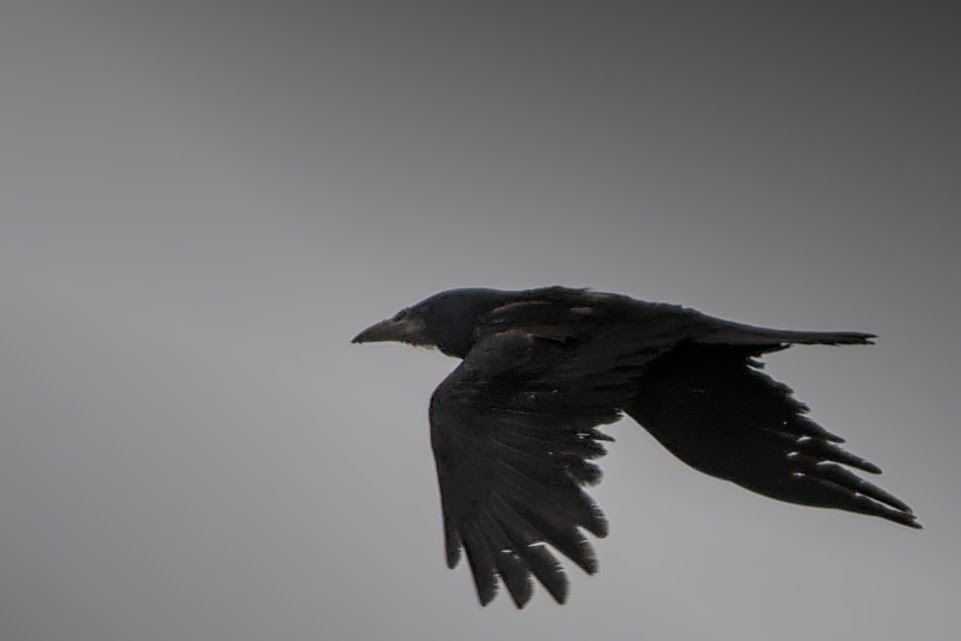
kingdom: Animalia
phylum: Chordata
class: Aves
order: Passeriformes
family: Corvidae
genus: Corvus
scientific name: Corvus corax
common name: Common raven
